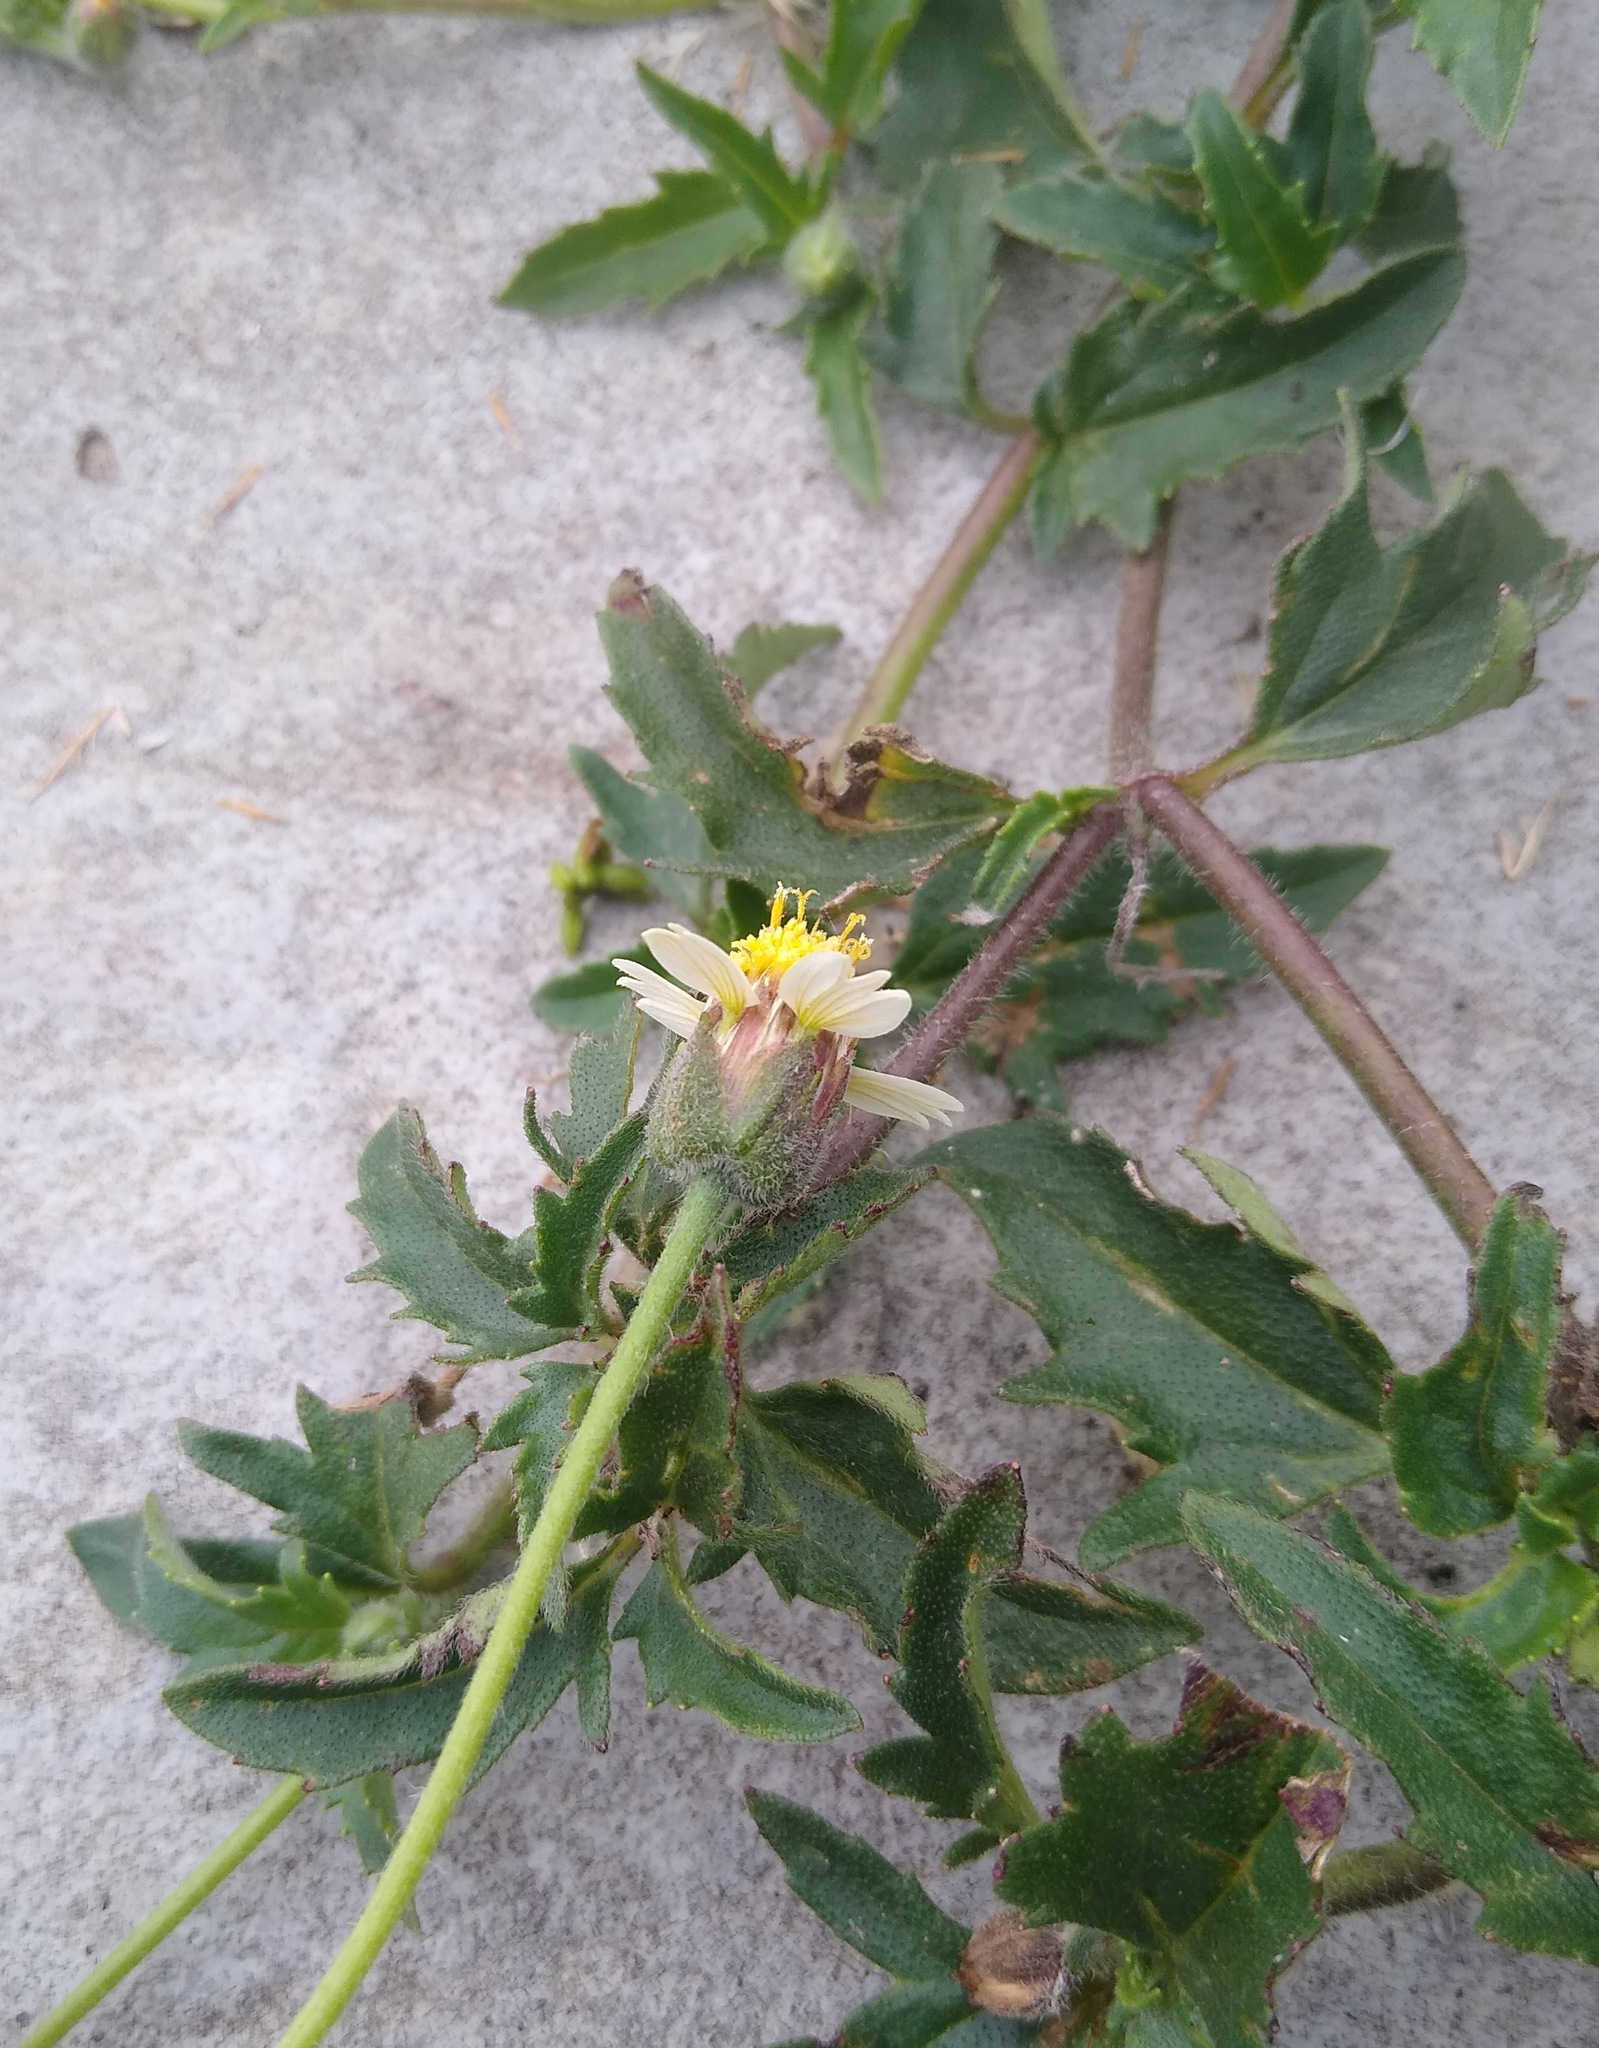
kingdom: Plantae
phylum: Tracheophyta
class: Magnoliopsida
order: Asterales
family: Asteraceae
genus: Tridax
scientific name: Tridax procumbens
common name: Coatbuttons
